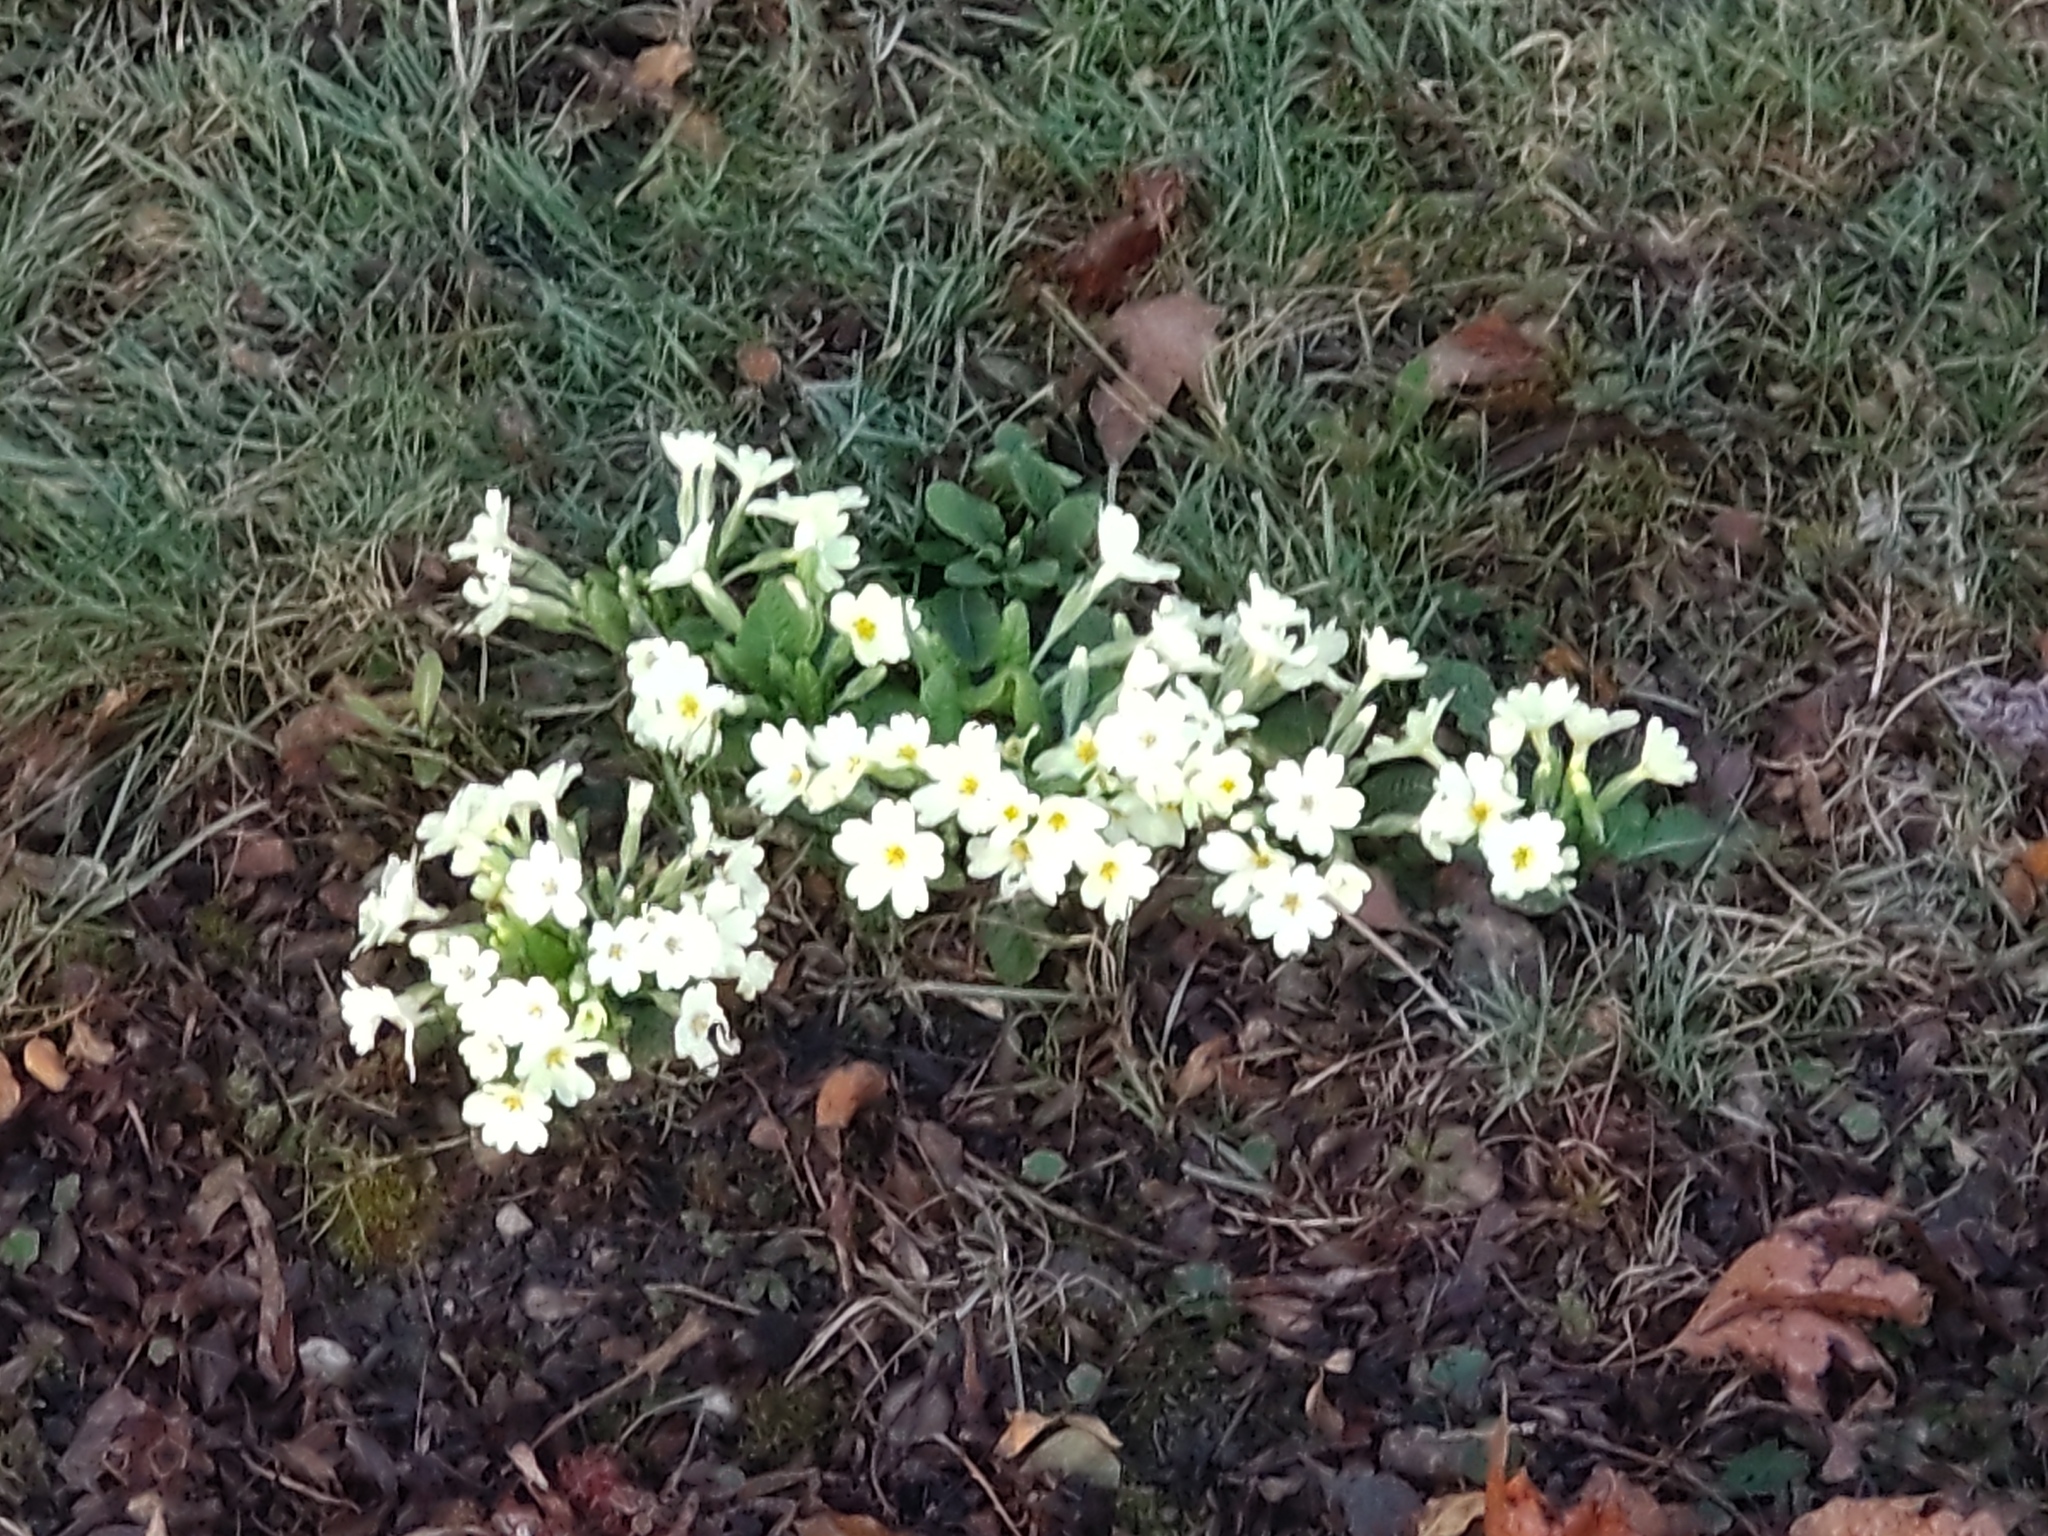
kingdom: Plantae
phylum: Tracheophyta
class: Magnoliopsida
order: Ericales
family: Primulaceae
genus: Primula
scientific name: Primula vulgaris
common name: Primrose
